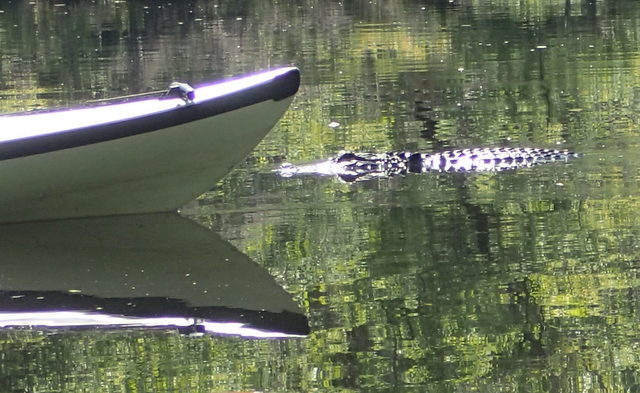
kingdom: Animalia
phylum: Chordata
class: Crocodylia
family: Alligatoridae
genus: Alligator
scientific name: Alligator mississippiensis
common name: American alligator
